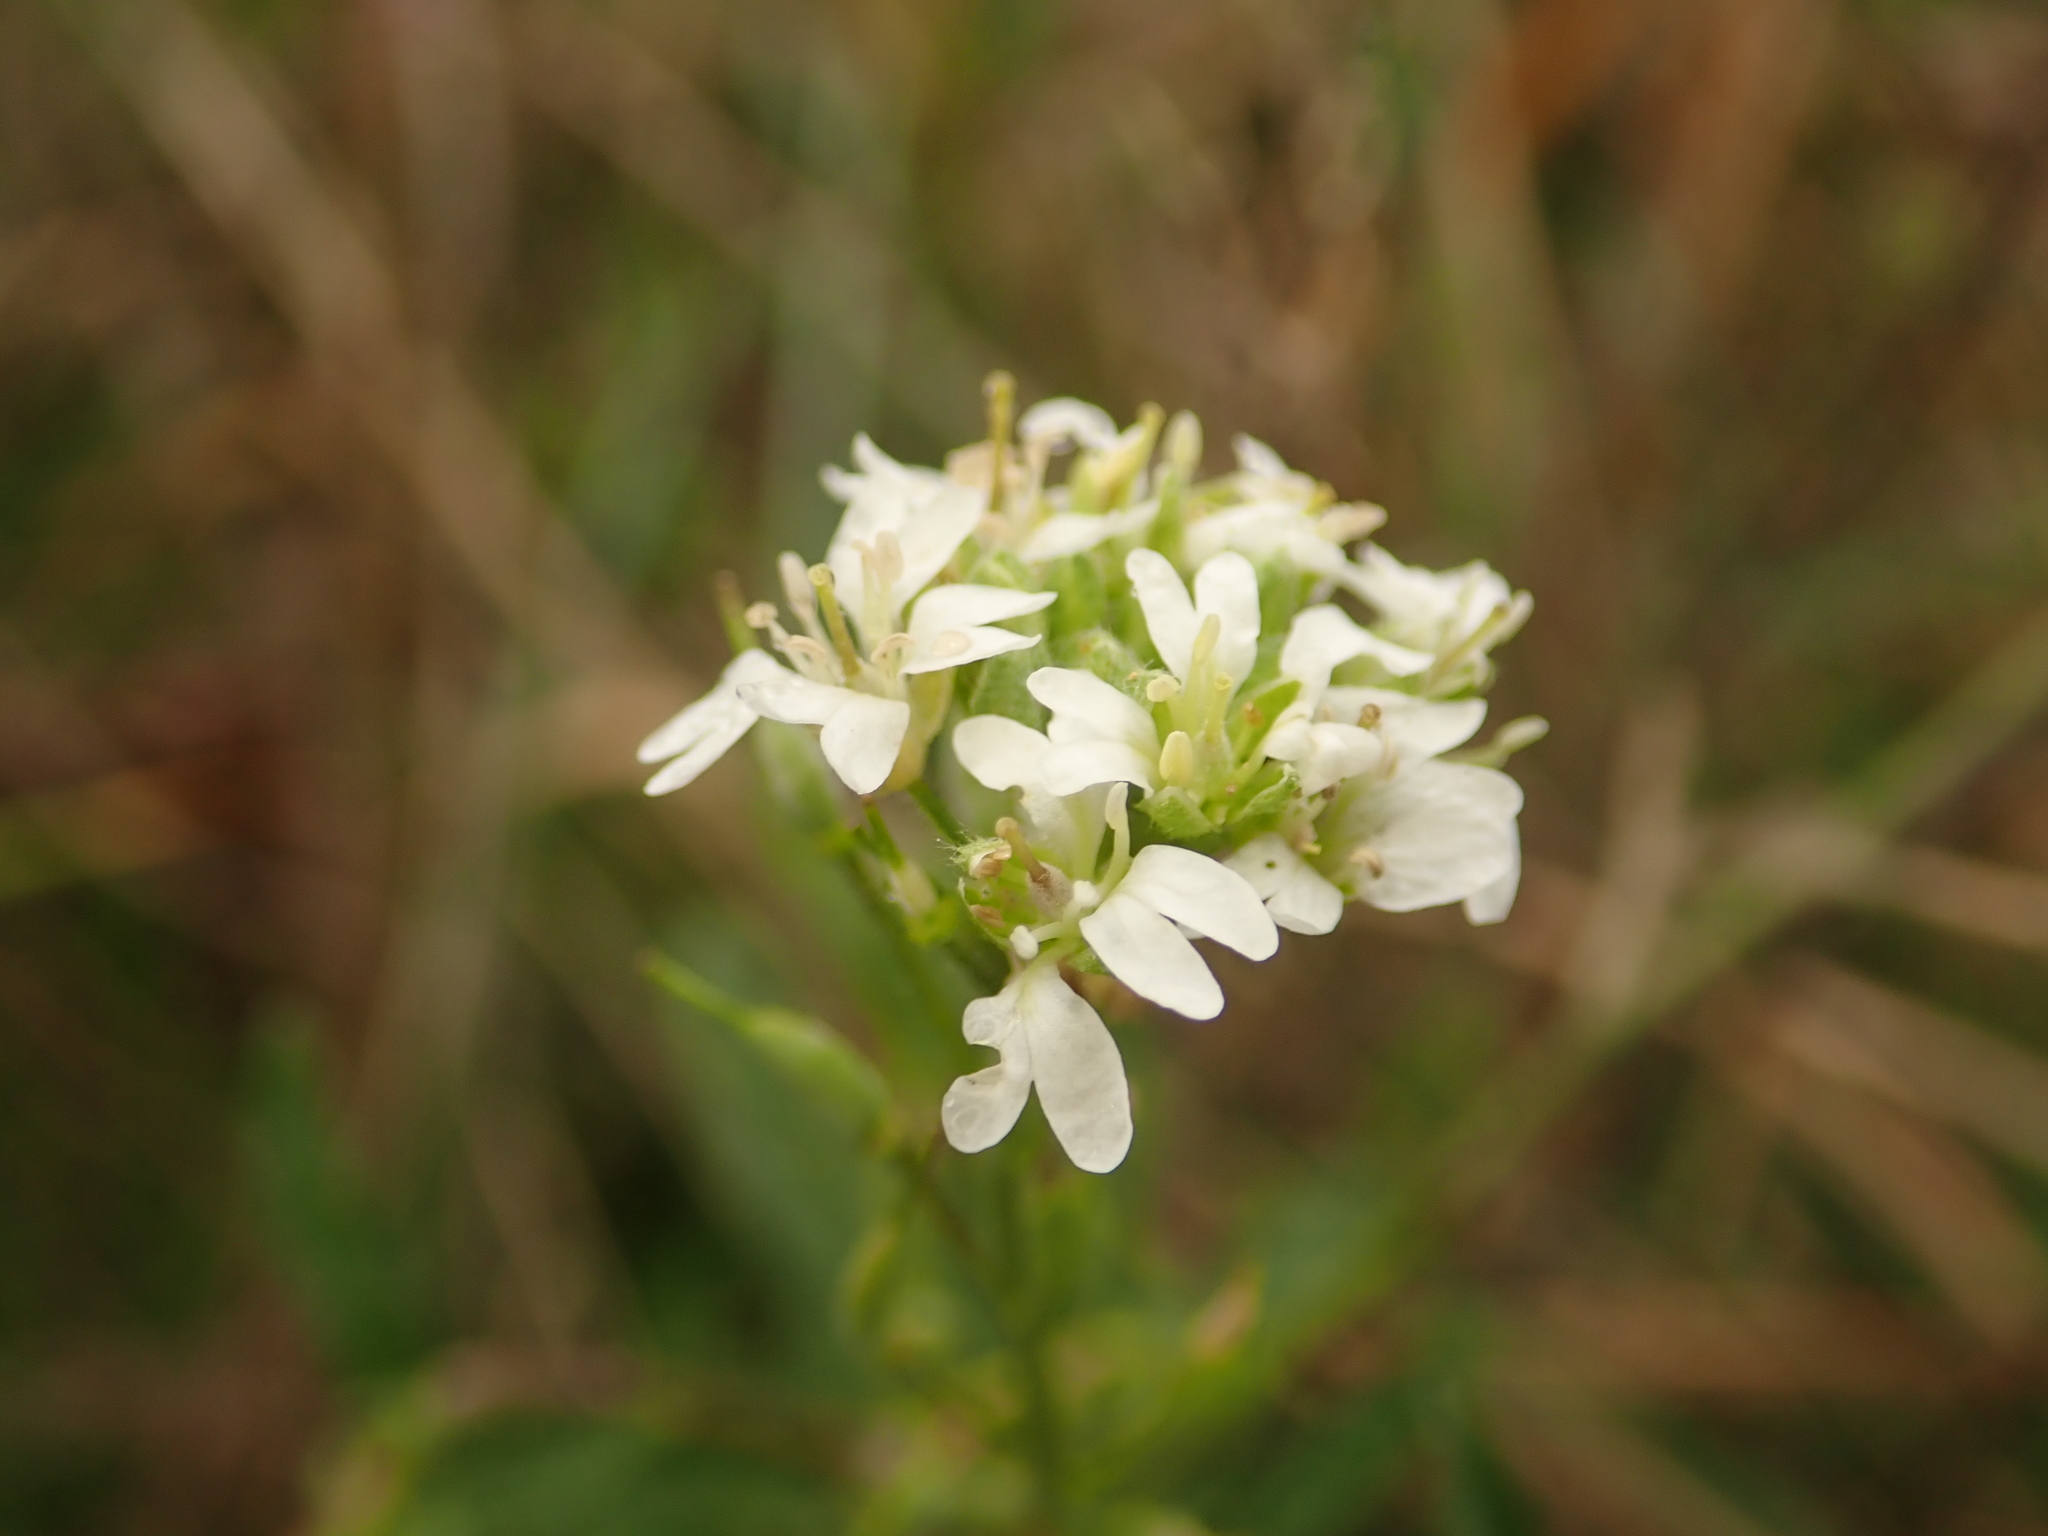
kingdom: Plantae
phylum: Tracheophyta
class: Magnoliopsida
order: Brassicales
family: Brassicaceae
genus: Berteroa
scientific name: Berteroa incana
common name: Hoary alison
